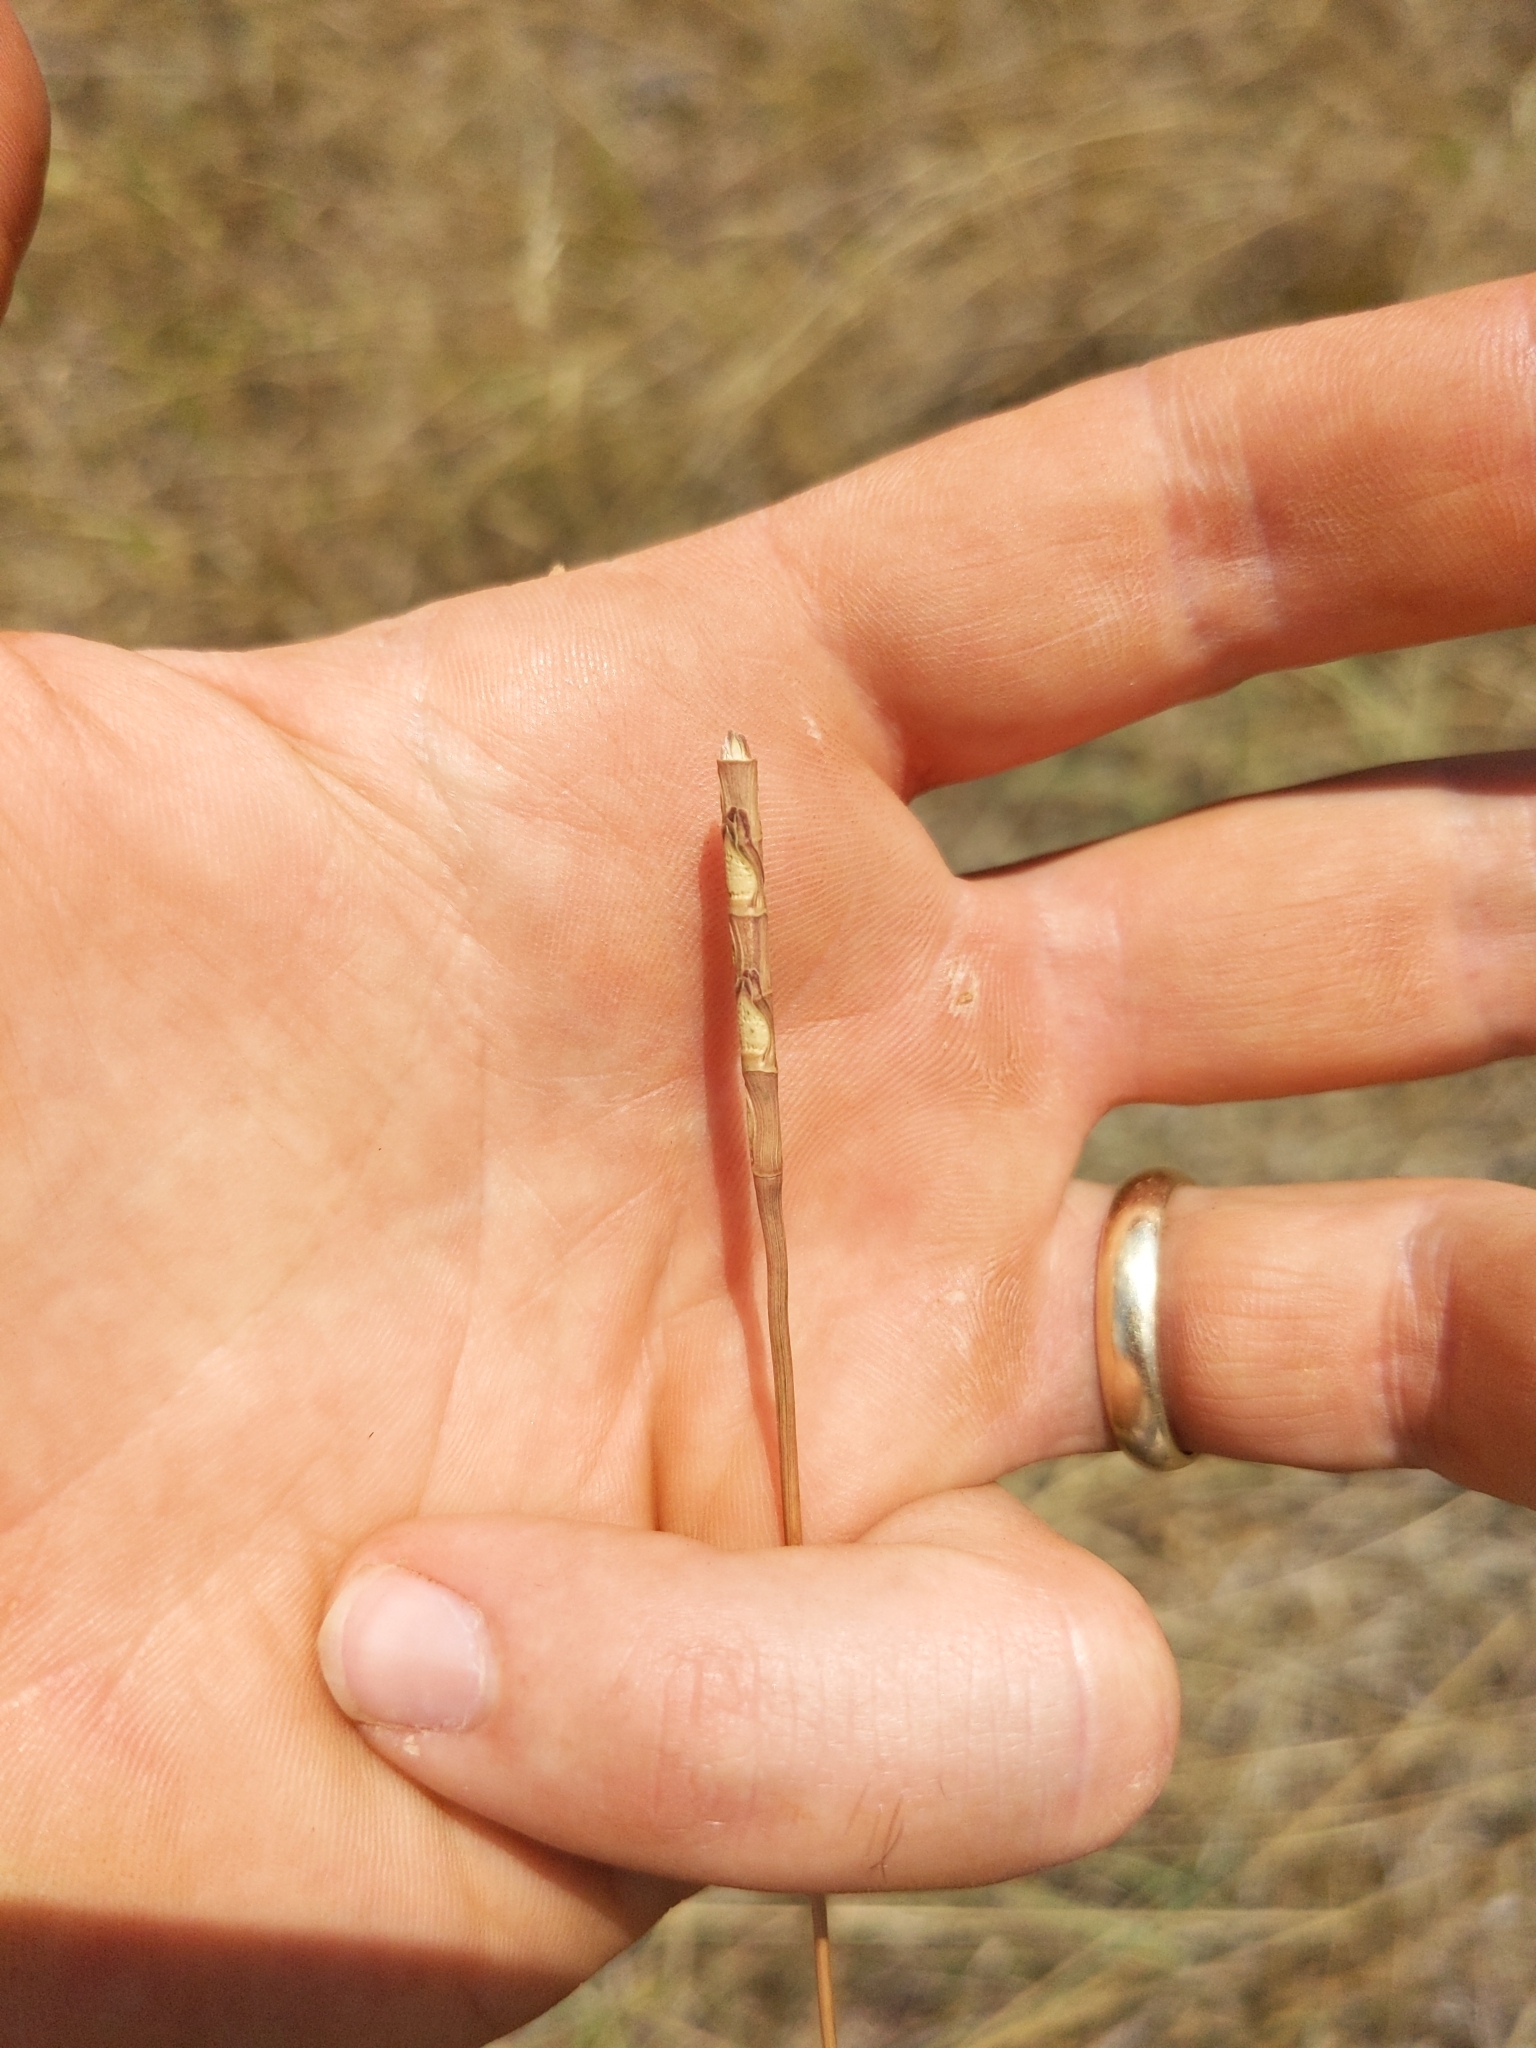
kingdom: Plantae
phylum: Tracheophyta
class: Liliopsida
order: Poales
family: Poaceae
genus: Rottboellia
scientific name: Rottboellia campestris
